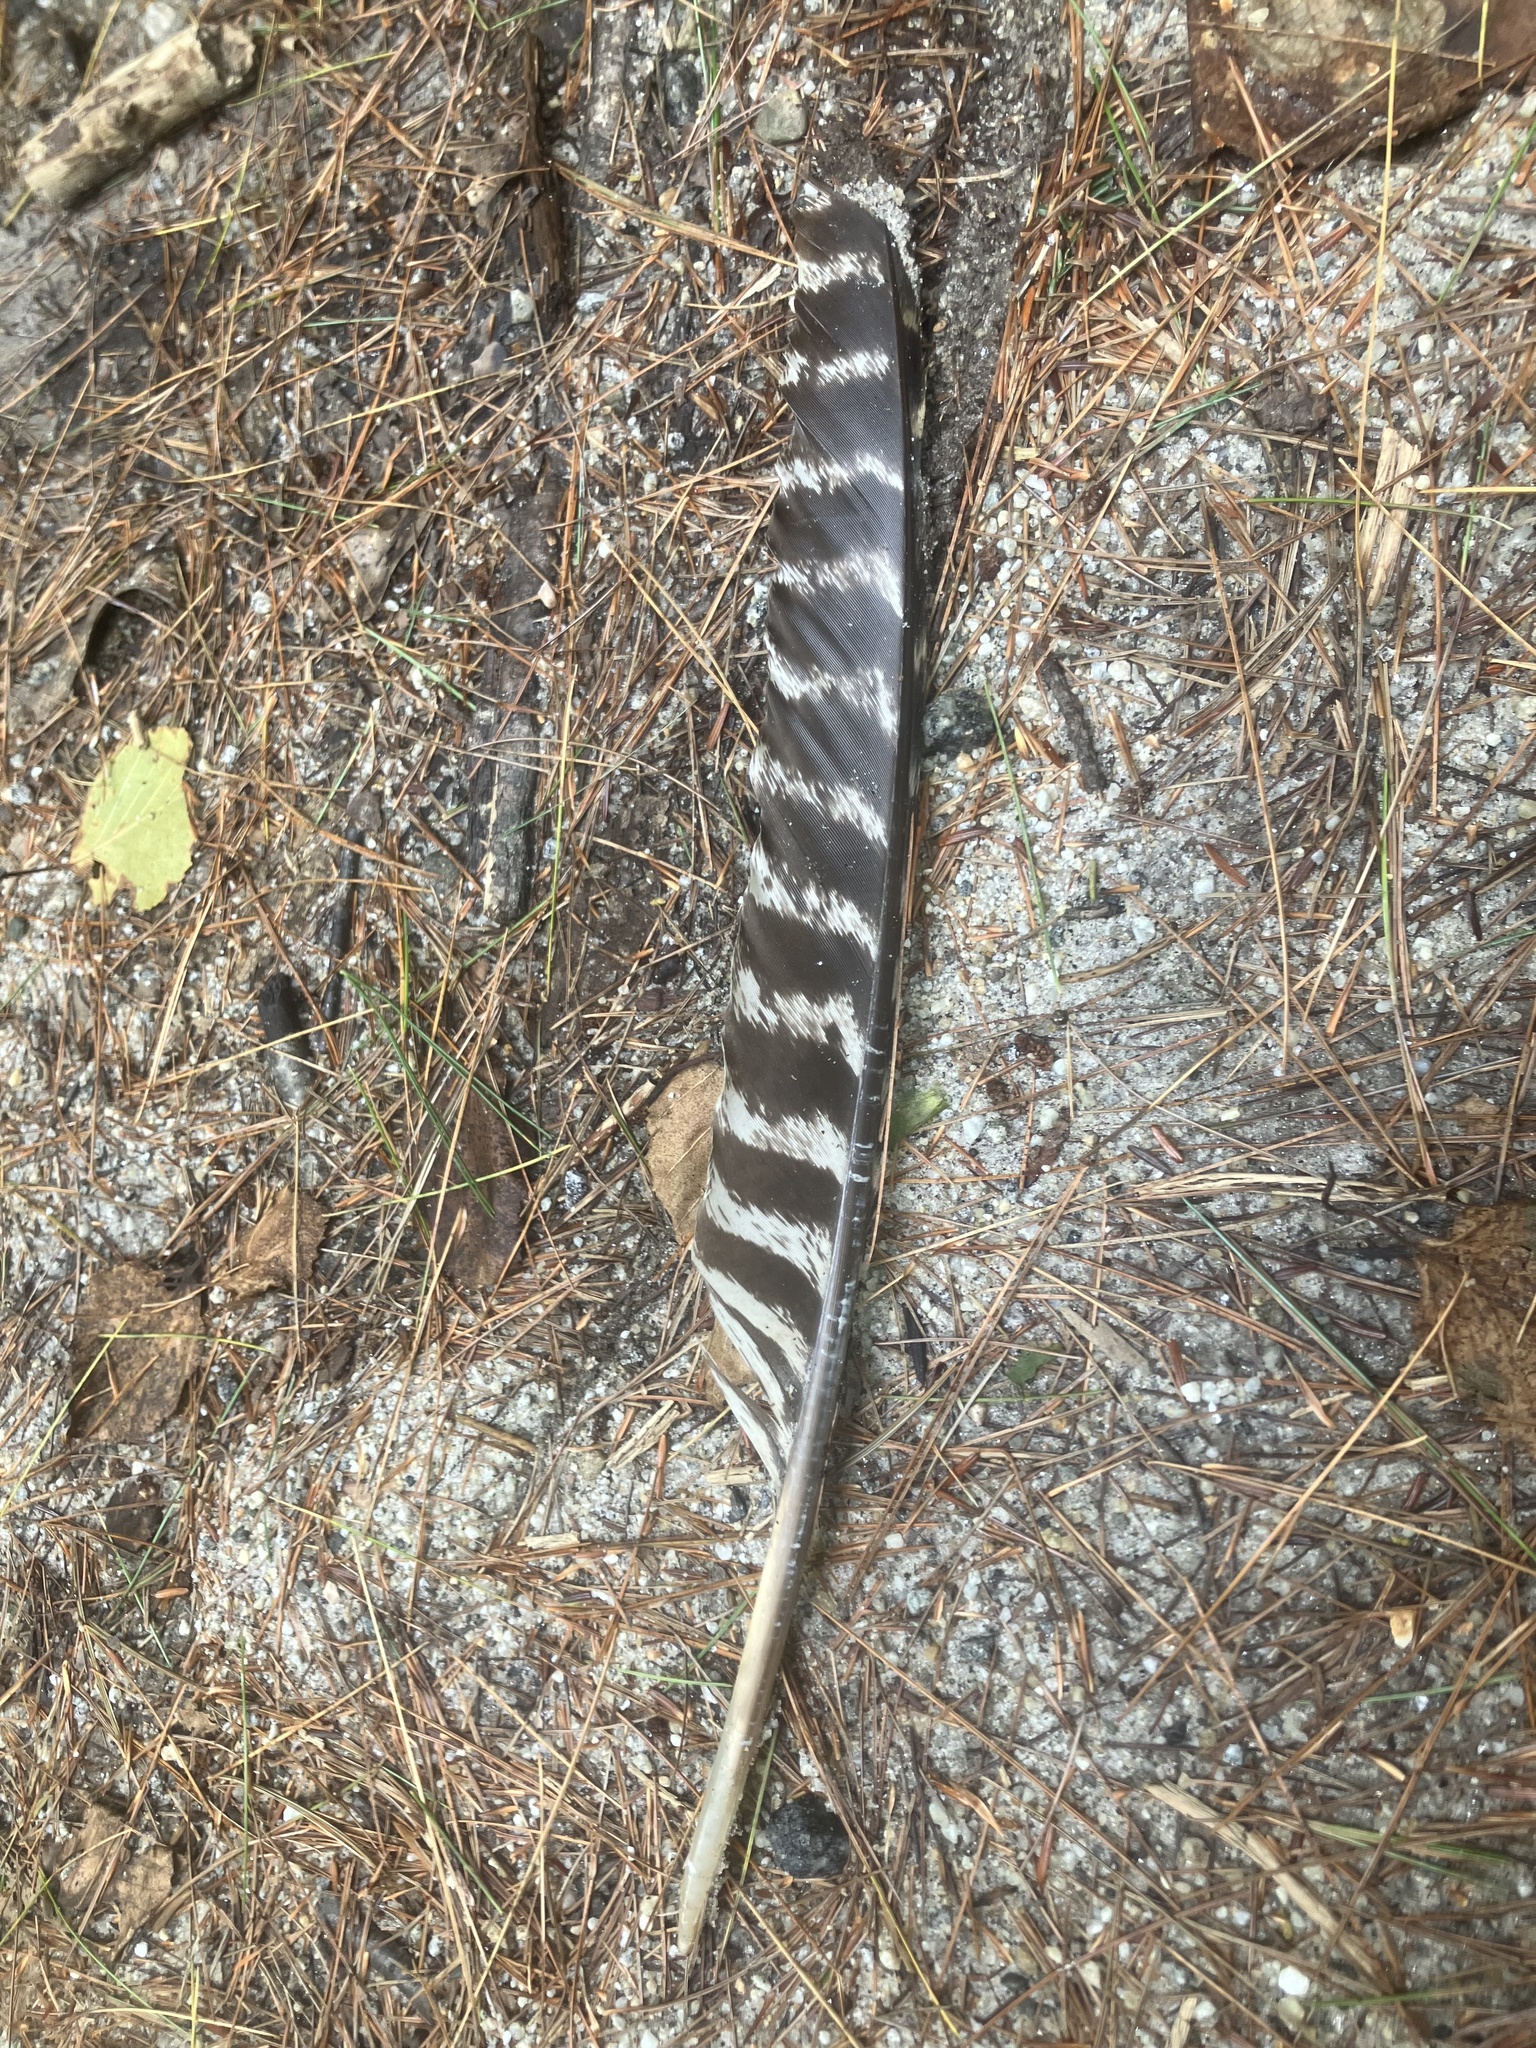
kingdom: Animalia
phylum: Chordata
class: Aves
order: Galliformes
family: Phasianidae
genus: Meleagris
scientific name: Meleagris gallopavo
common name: Wild turkey
